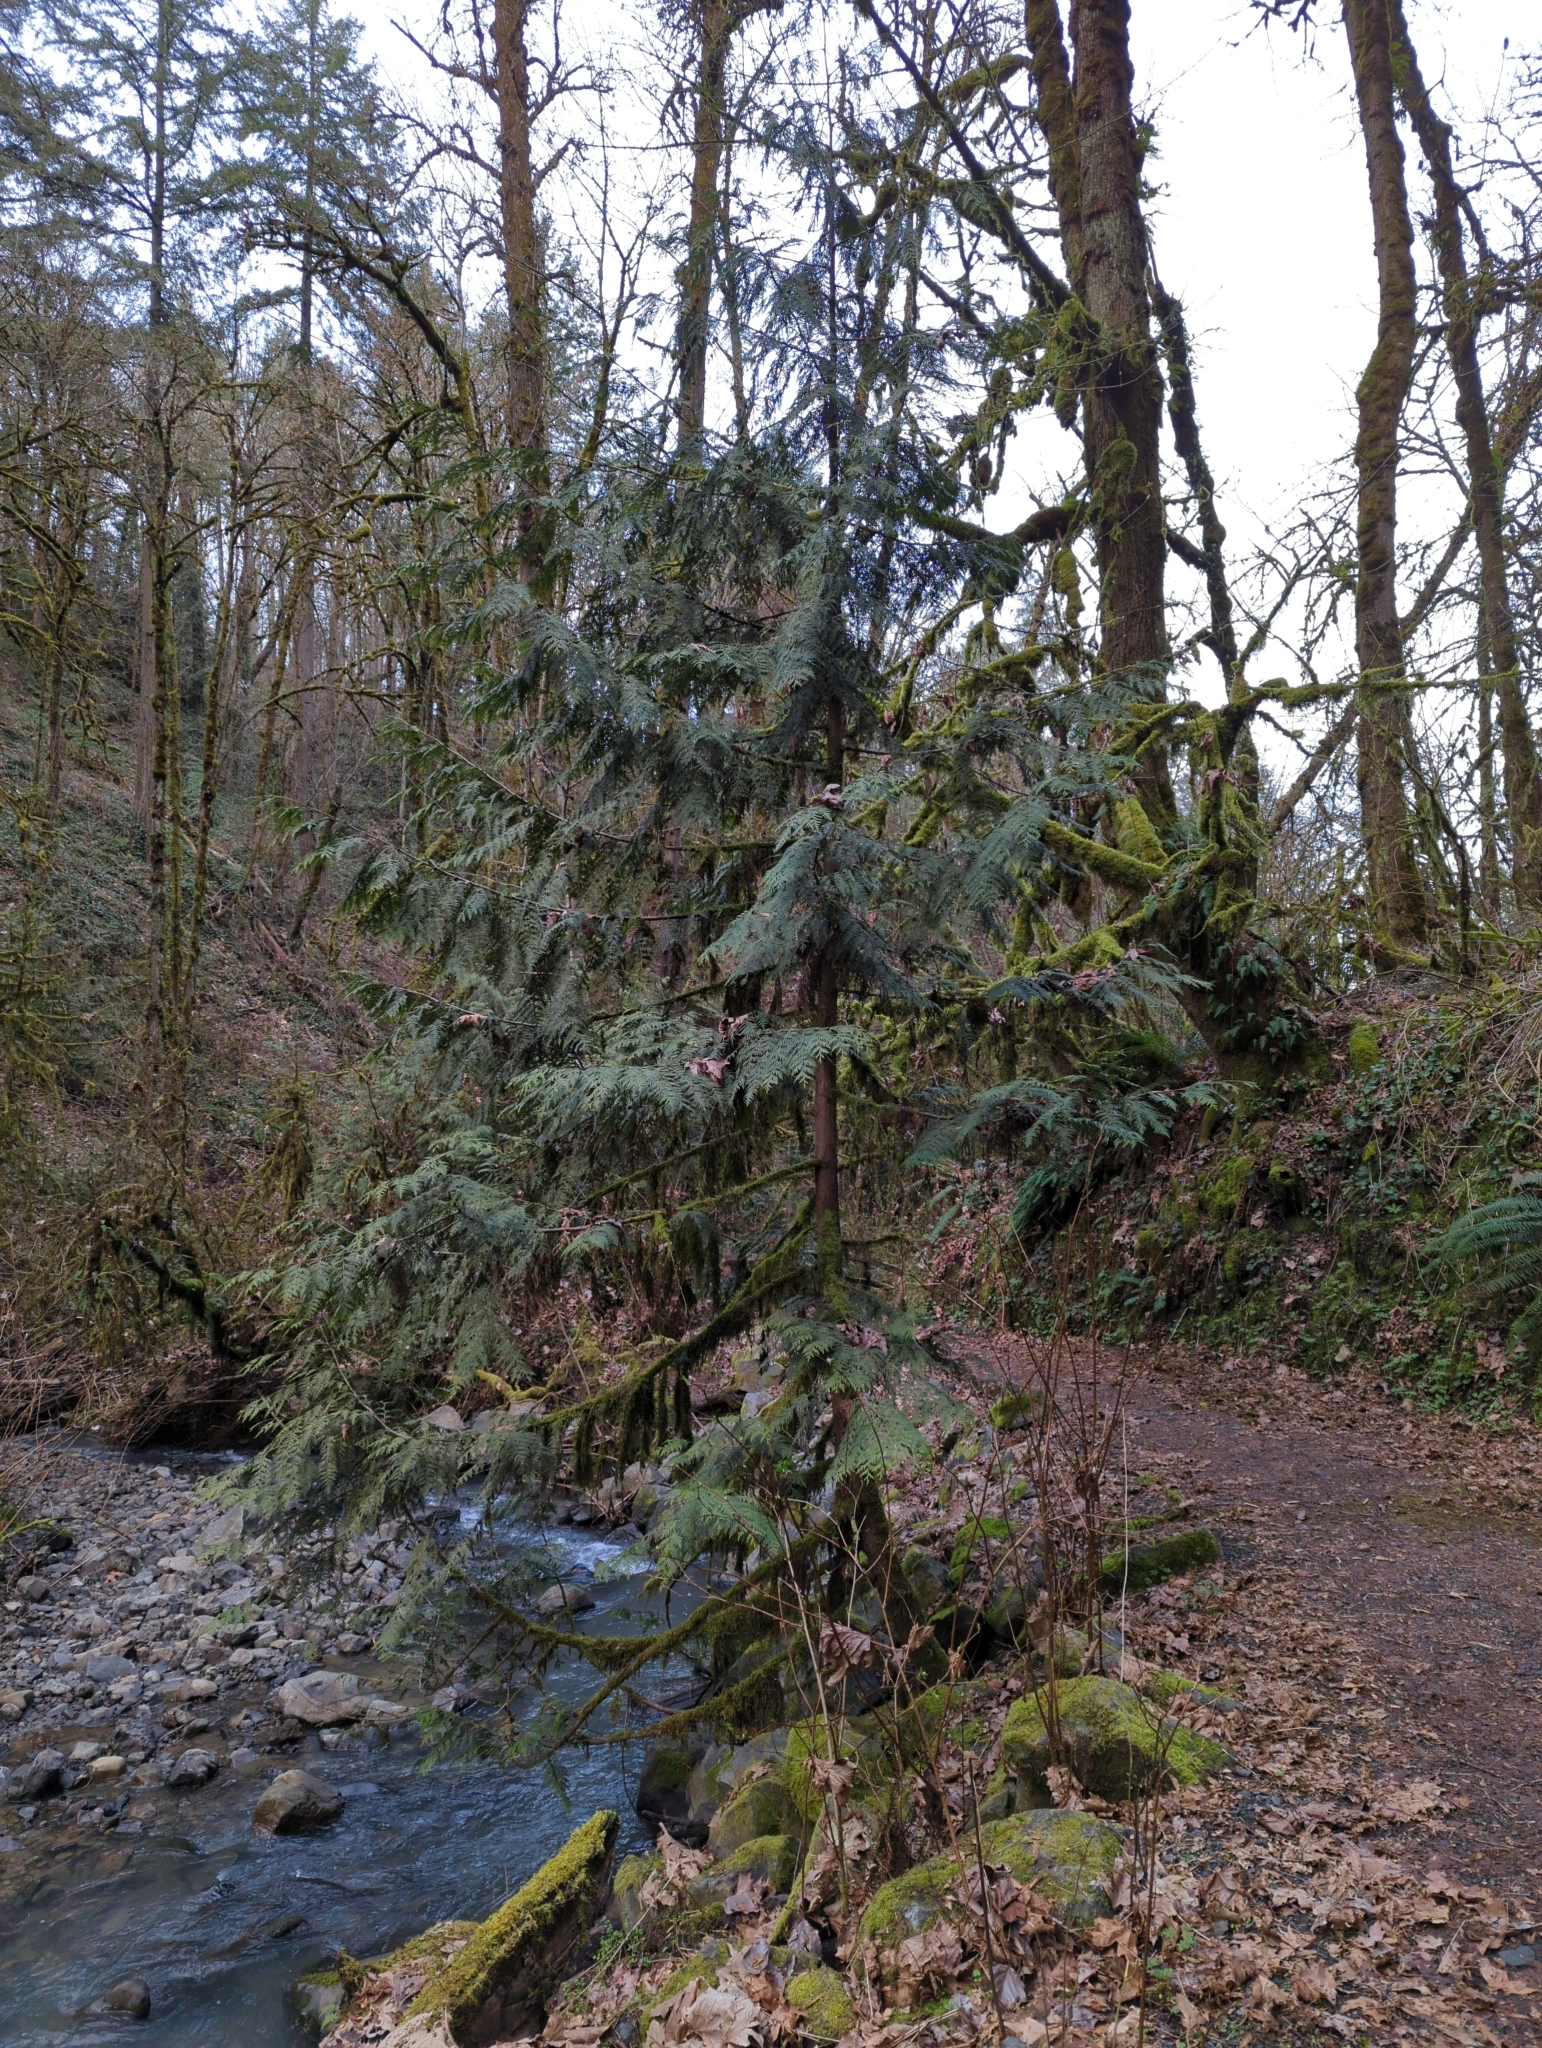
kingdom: Plantae
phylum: Tracheophyta
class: Pinopsida
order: Pinales
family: Cupressaceae
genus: Thuja
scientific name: Thuja plicata
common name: Western red-cedar
